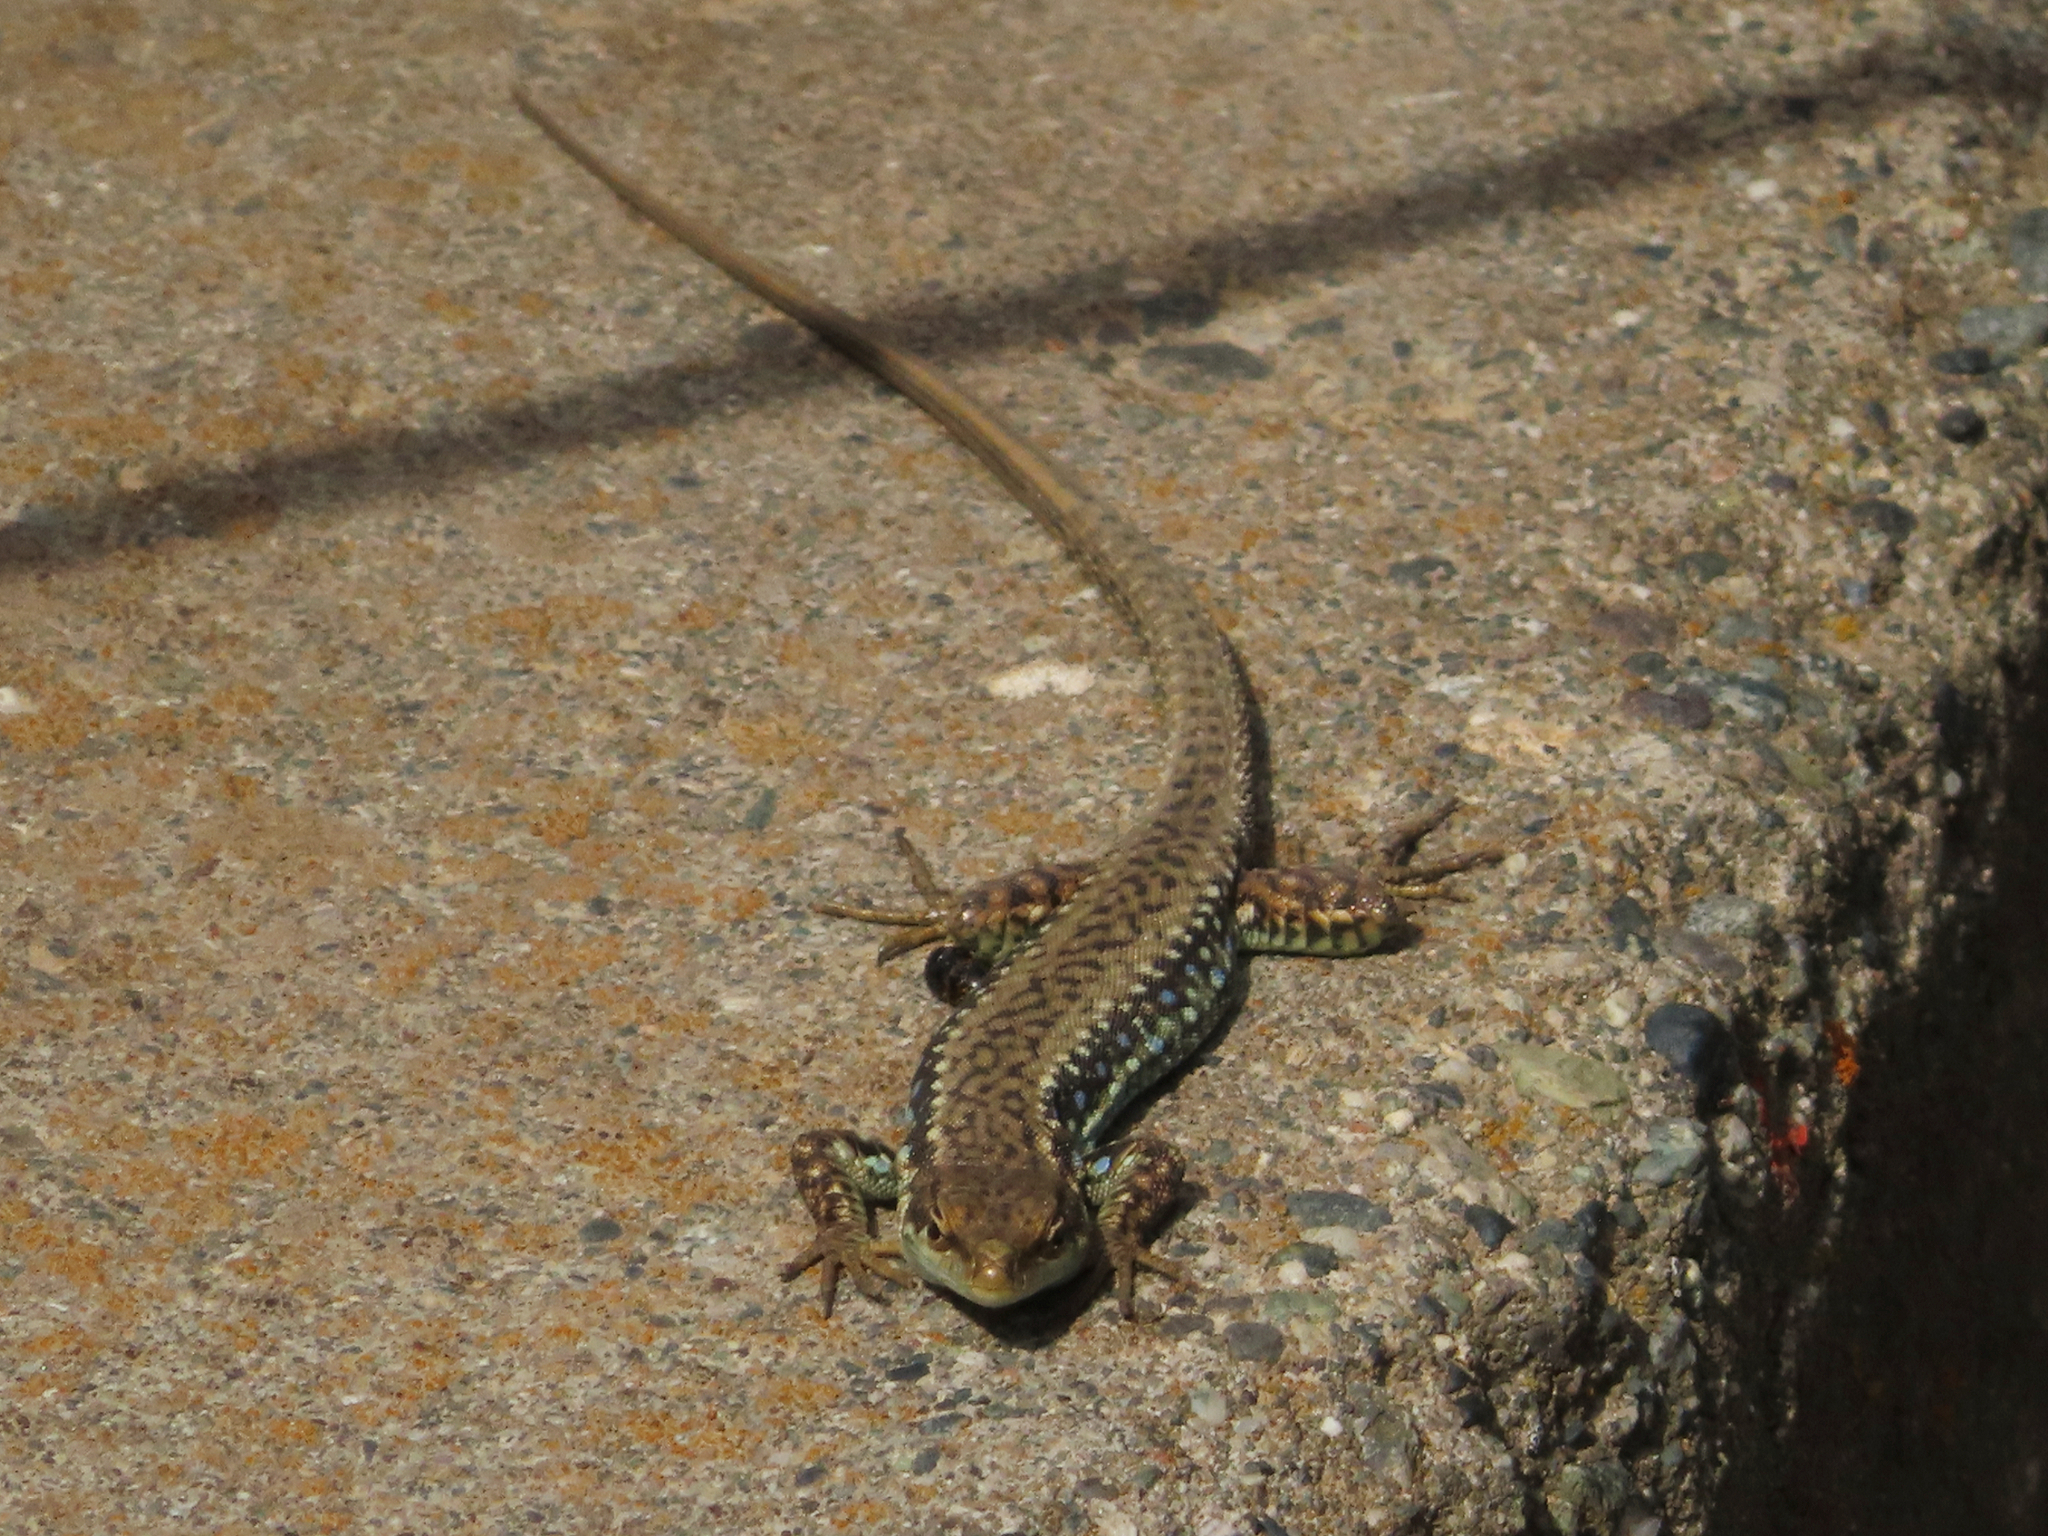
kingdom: Animalia
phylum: Chordata
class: Squamata
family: Lacertidae
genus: Darevskia
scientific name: Darevskia raddei
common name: Radde's lizard
